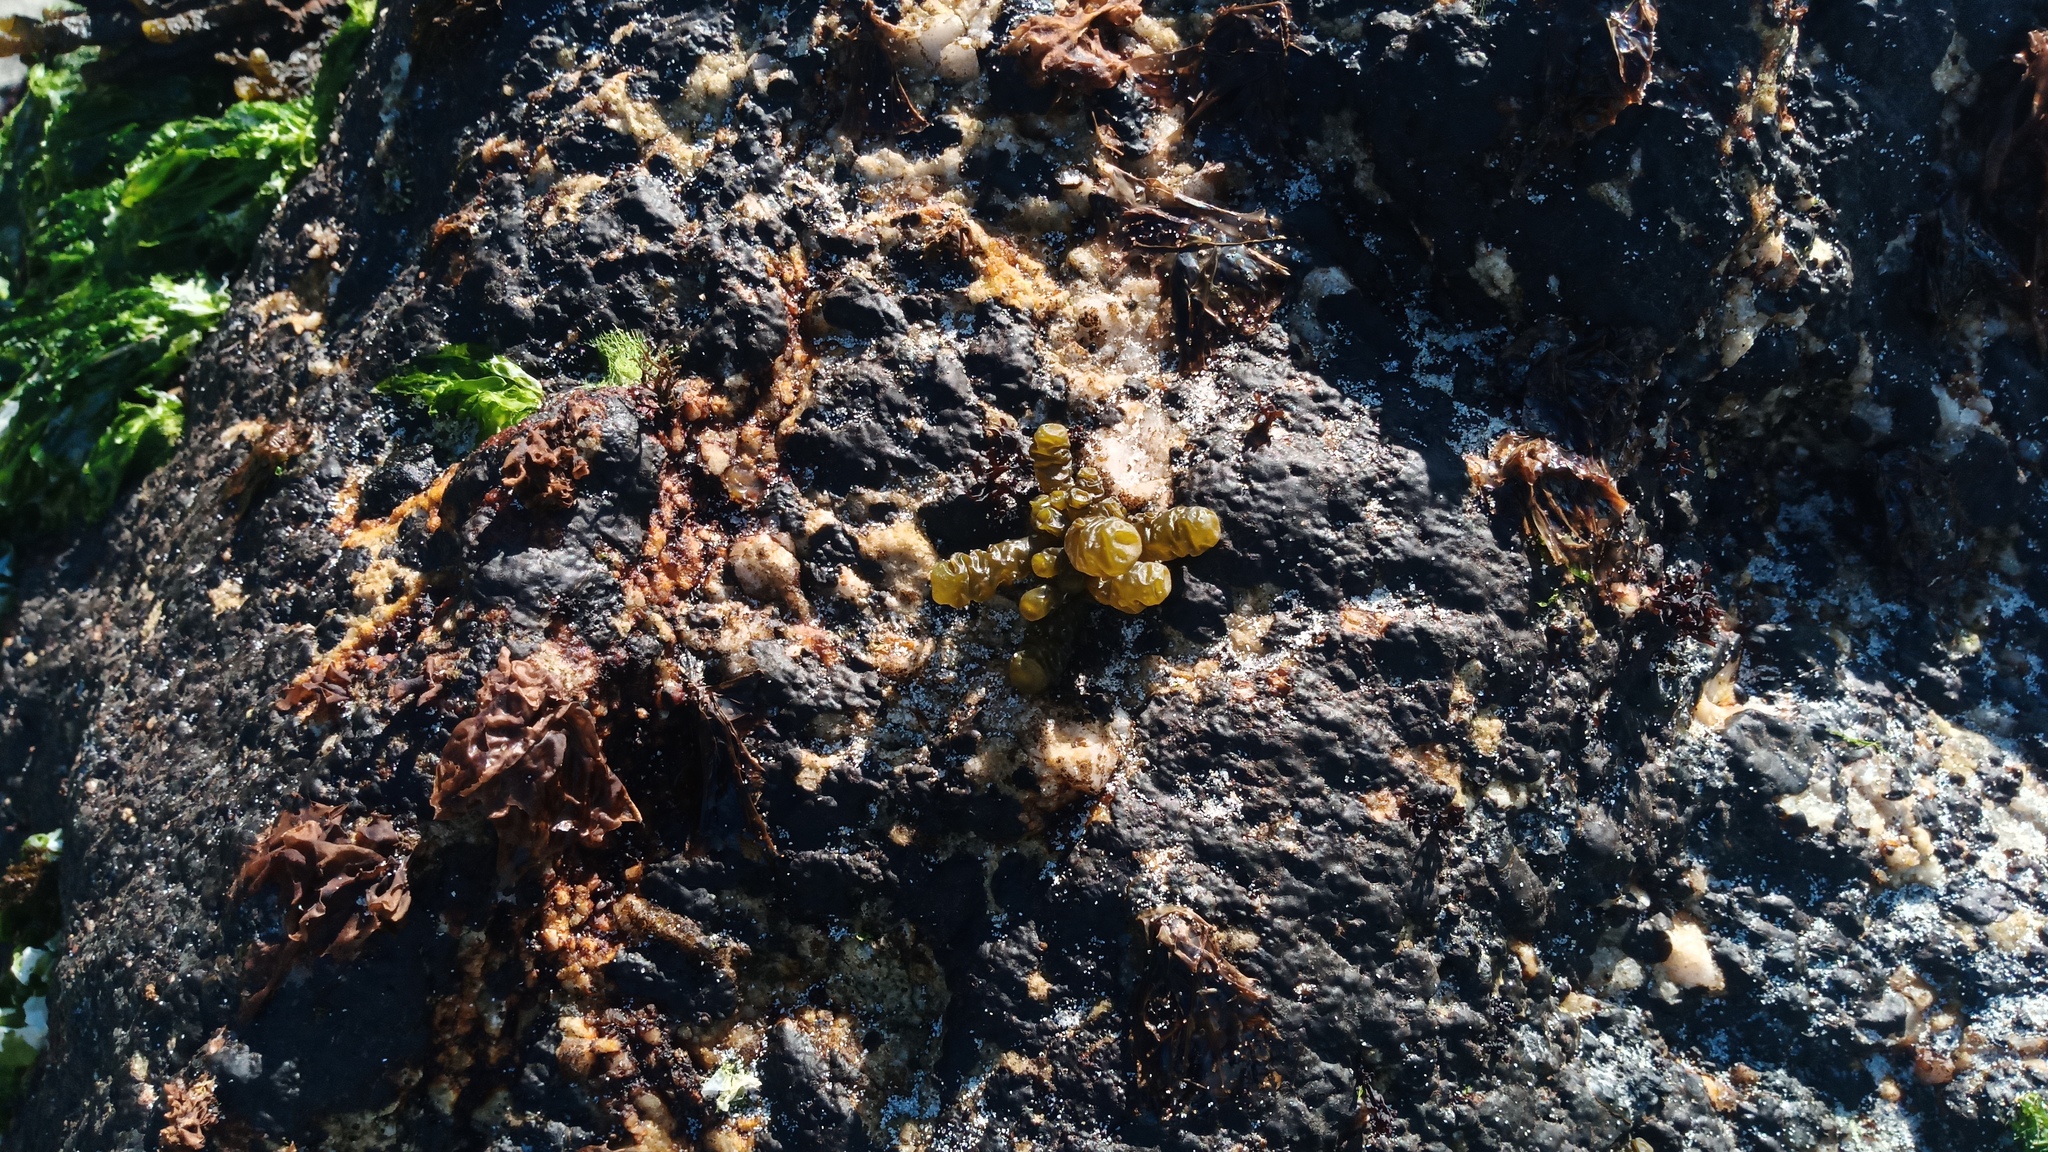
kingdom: Chromista
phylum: Ochrophyta
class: Phaeophyceae
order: Scytothamnales
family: Splachnidiaceae
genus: Splachnidium
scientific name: Splachnidium rugosum
